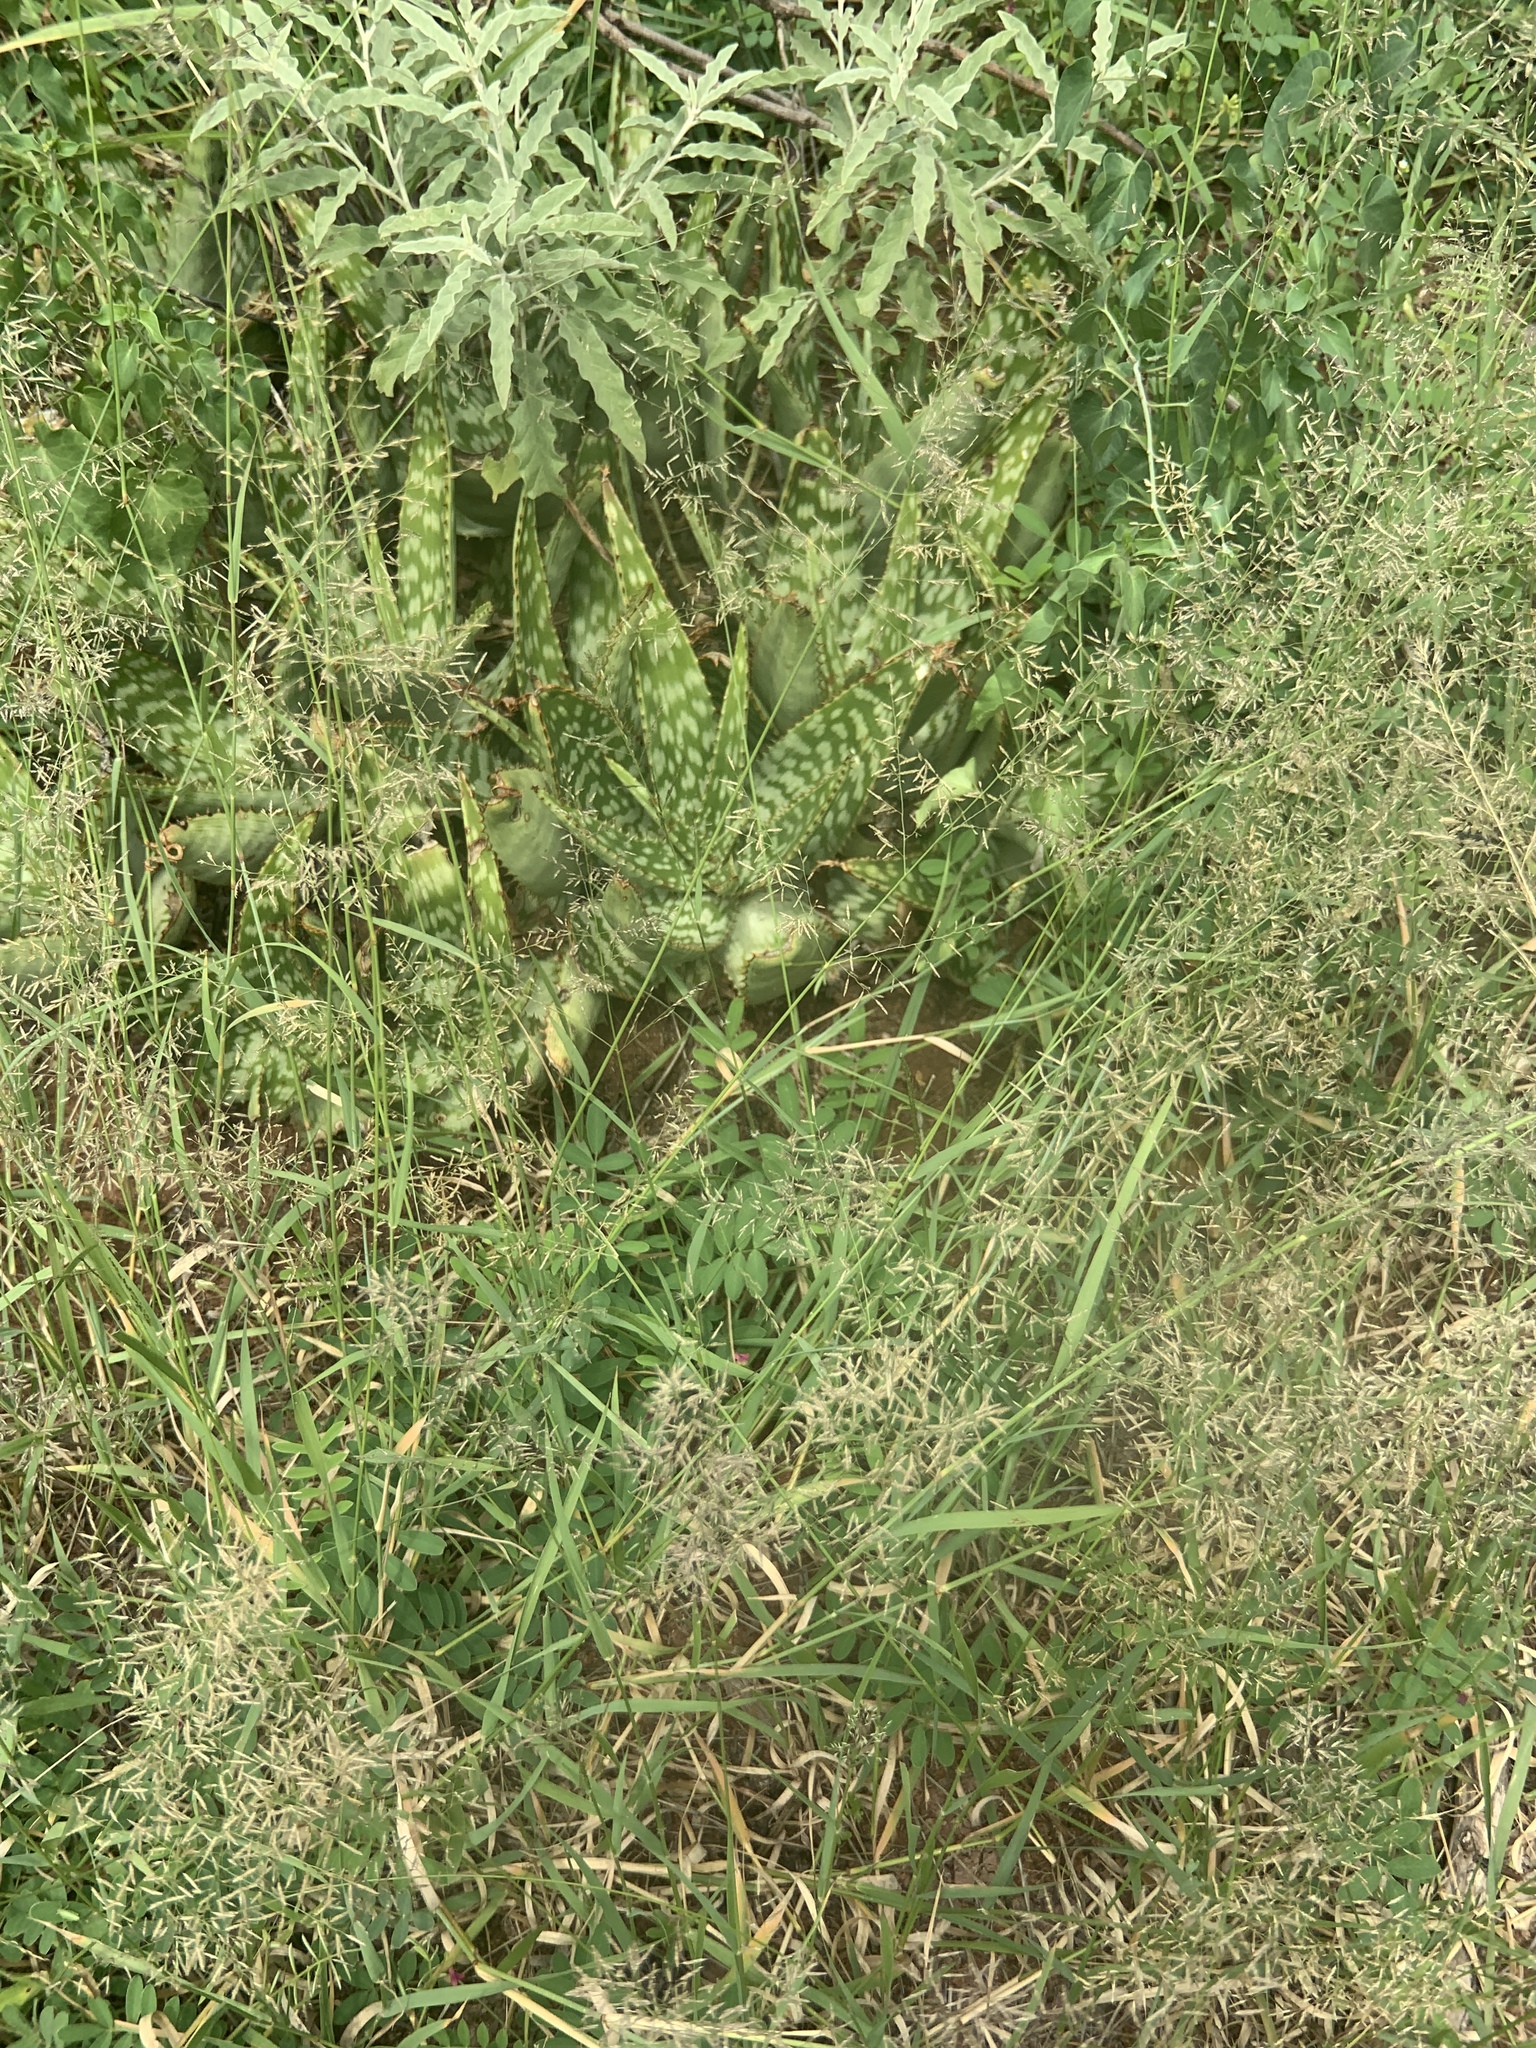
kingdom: Plantae
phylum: Tracheophyta
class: Liliopsida
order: Asparagales
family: Asphodelaceae
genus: Aloe
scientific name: Aloe davyana
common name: Spotted aloe
